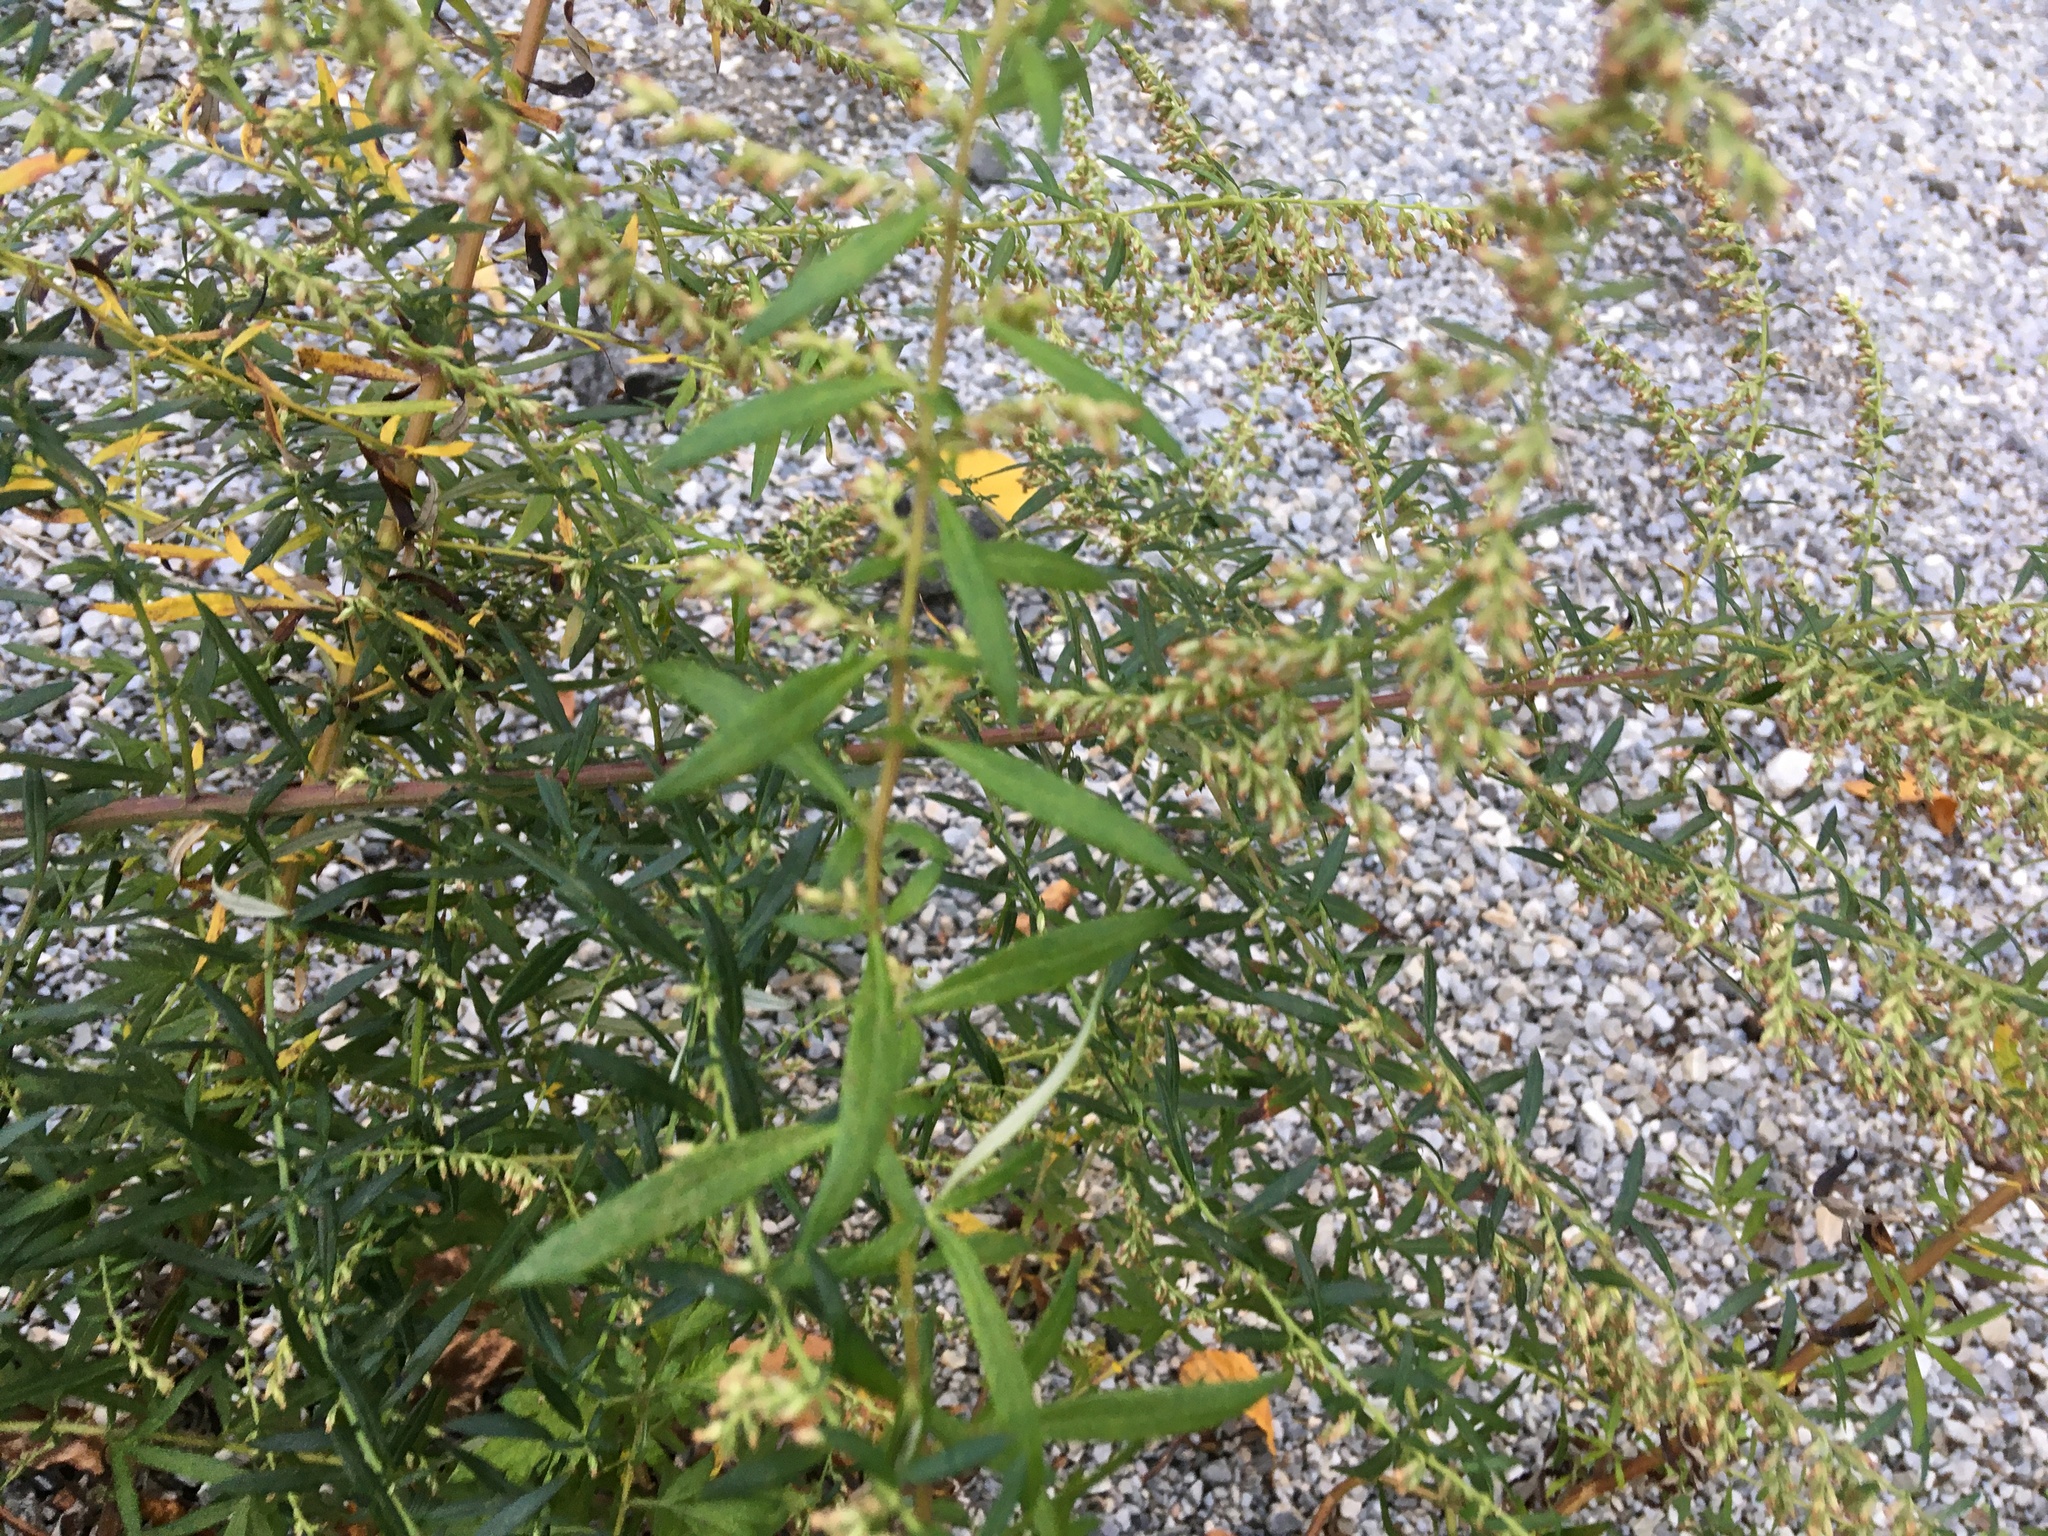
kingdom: Plantae
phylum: Tracheophyta
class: Magnoliopsida
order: Asterales
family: Asteraceae
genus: Artemisia
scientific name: Artemisia vulgaris
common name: Mugwort
